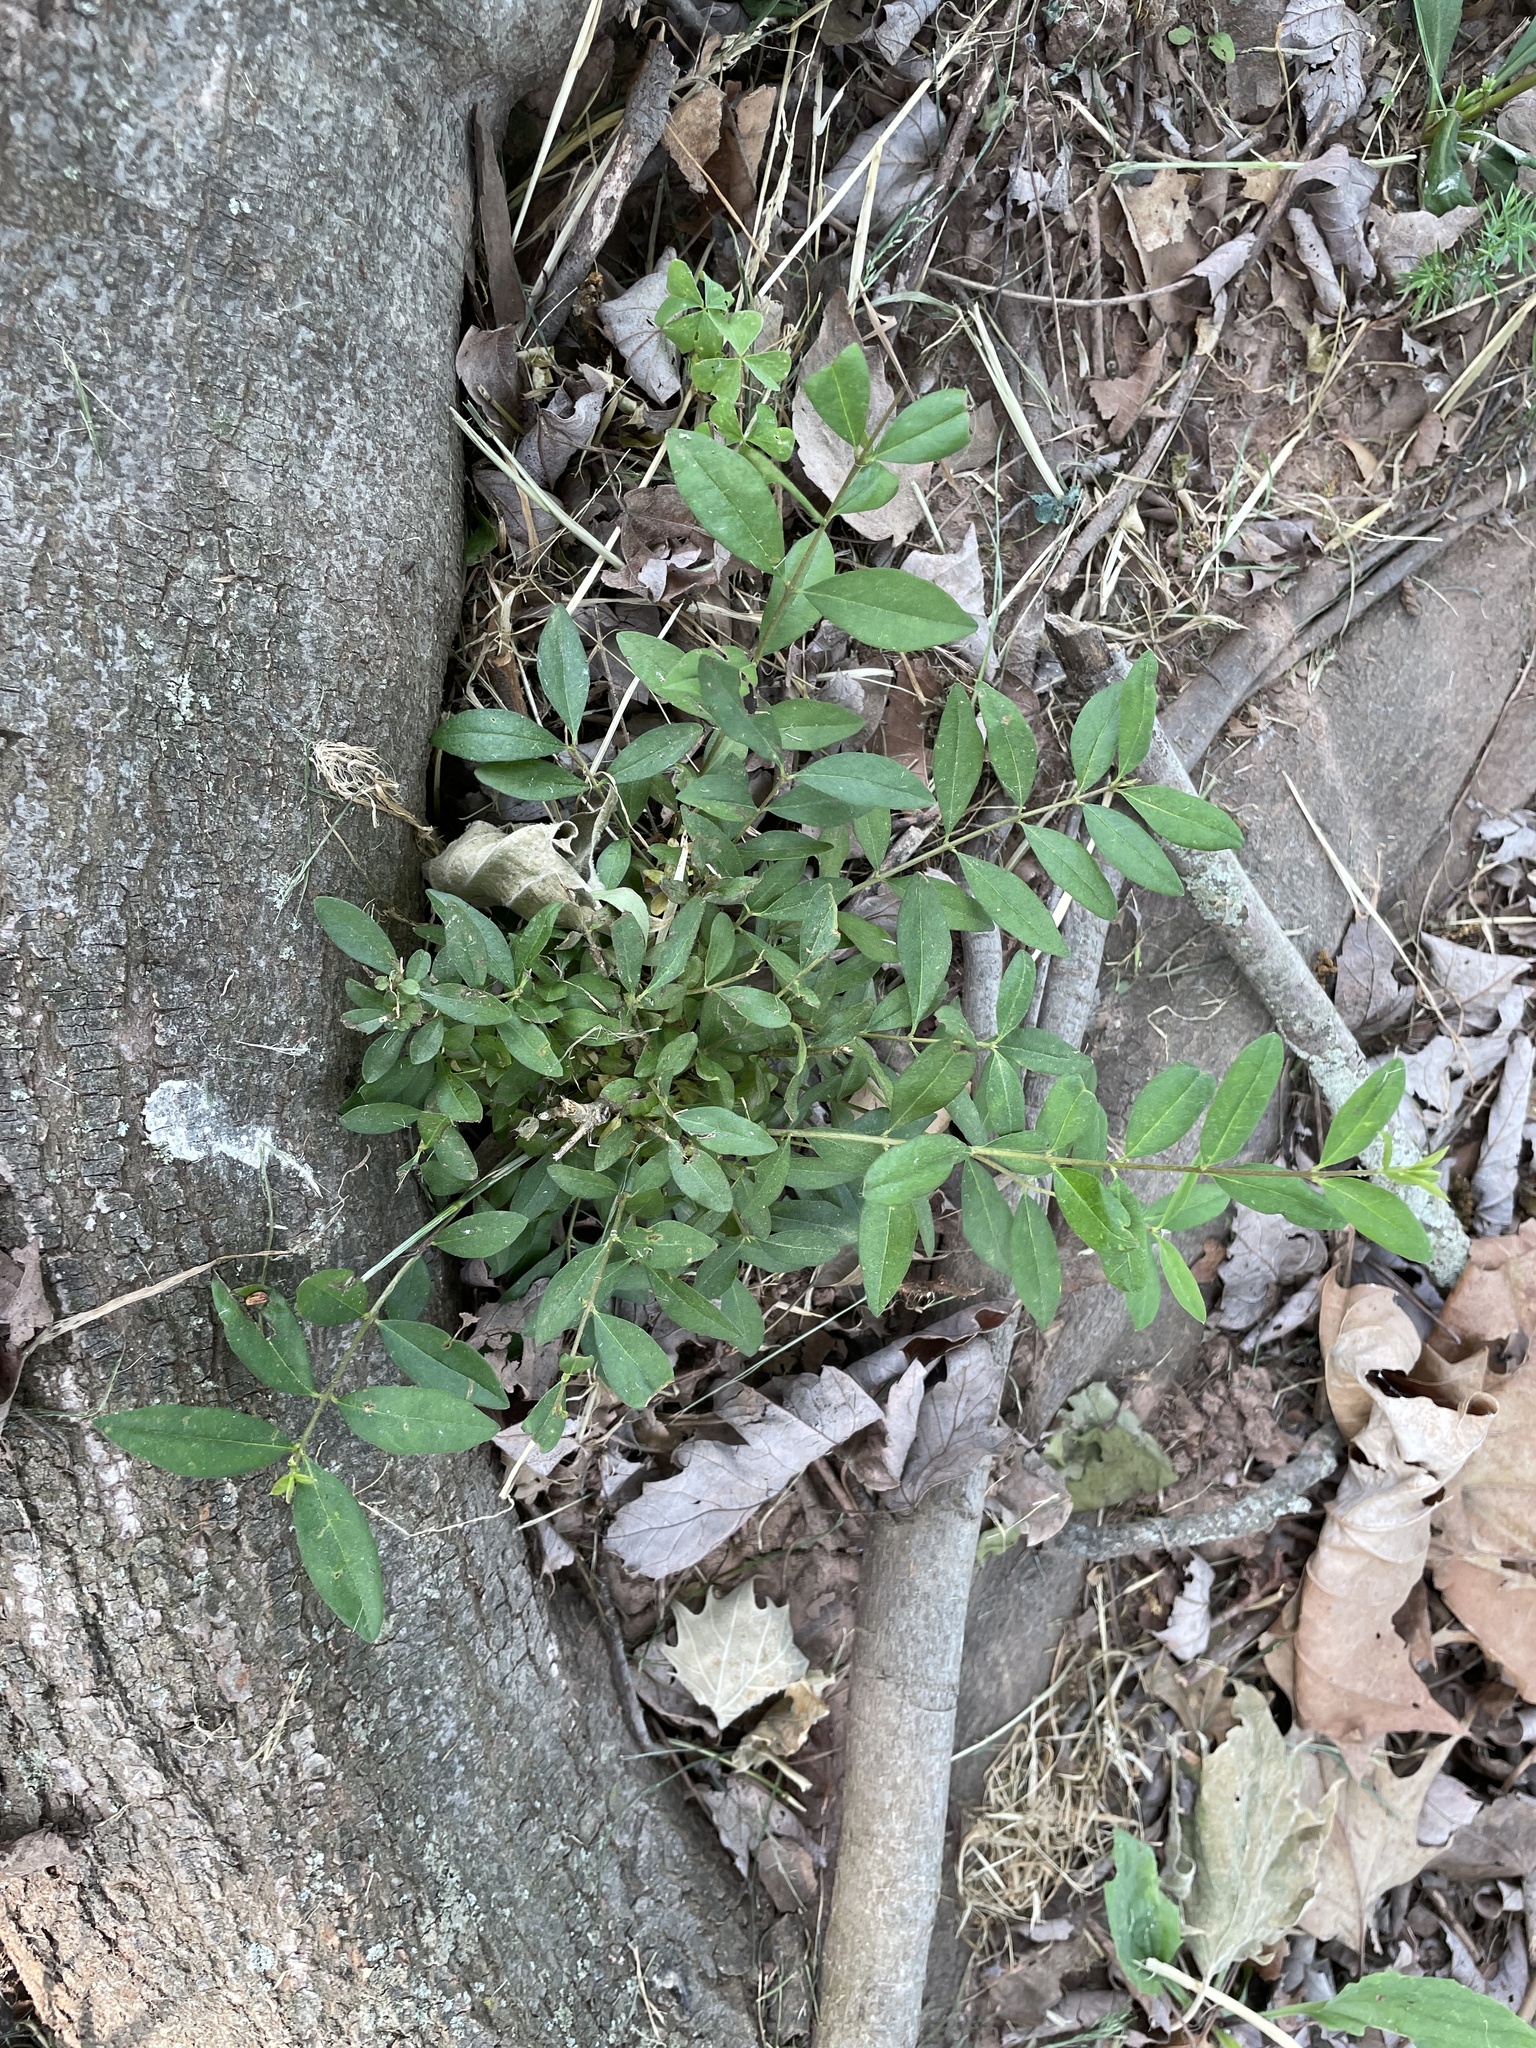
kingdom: Plantae
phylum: Tracheophyta
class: Magnoliopsida
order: Lamiales
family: Oleaceae
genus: Ligustrum
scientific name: Ligustrum obtusifolium
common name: Border privet
